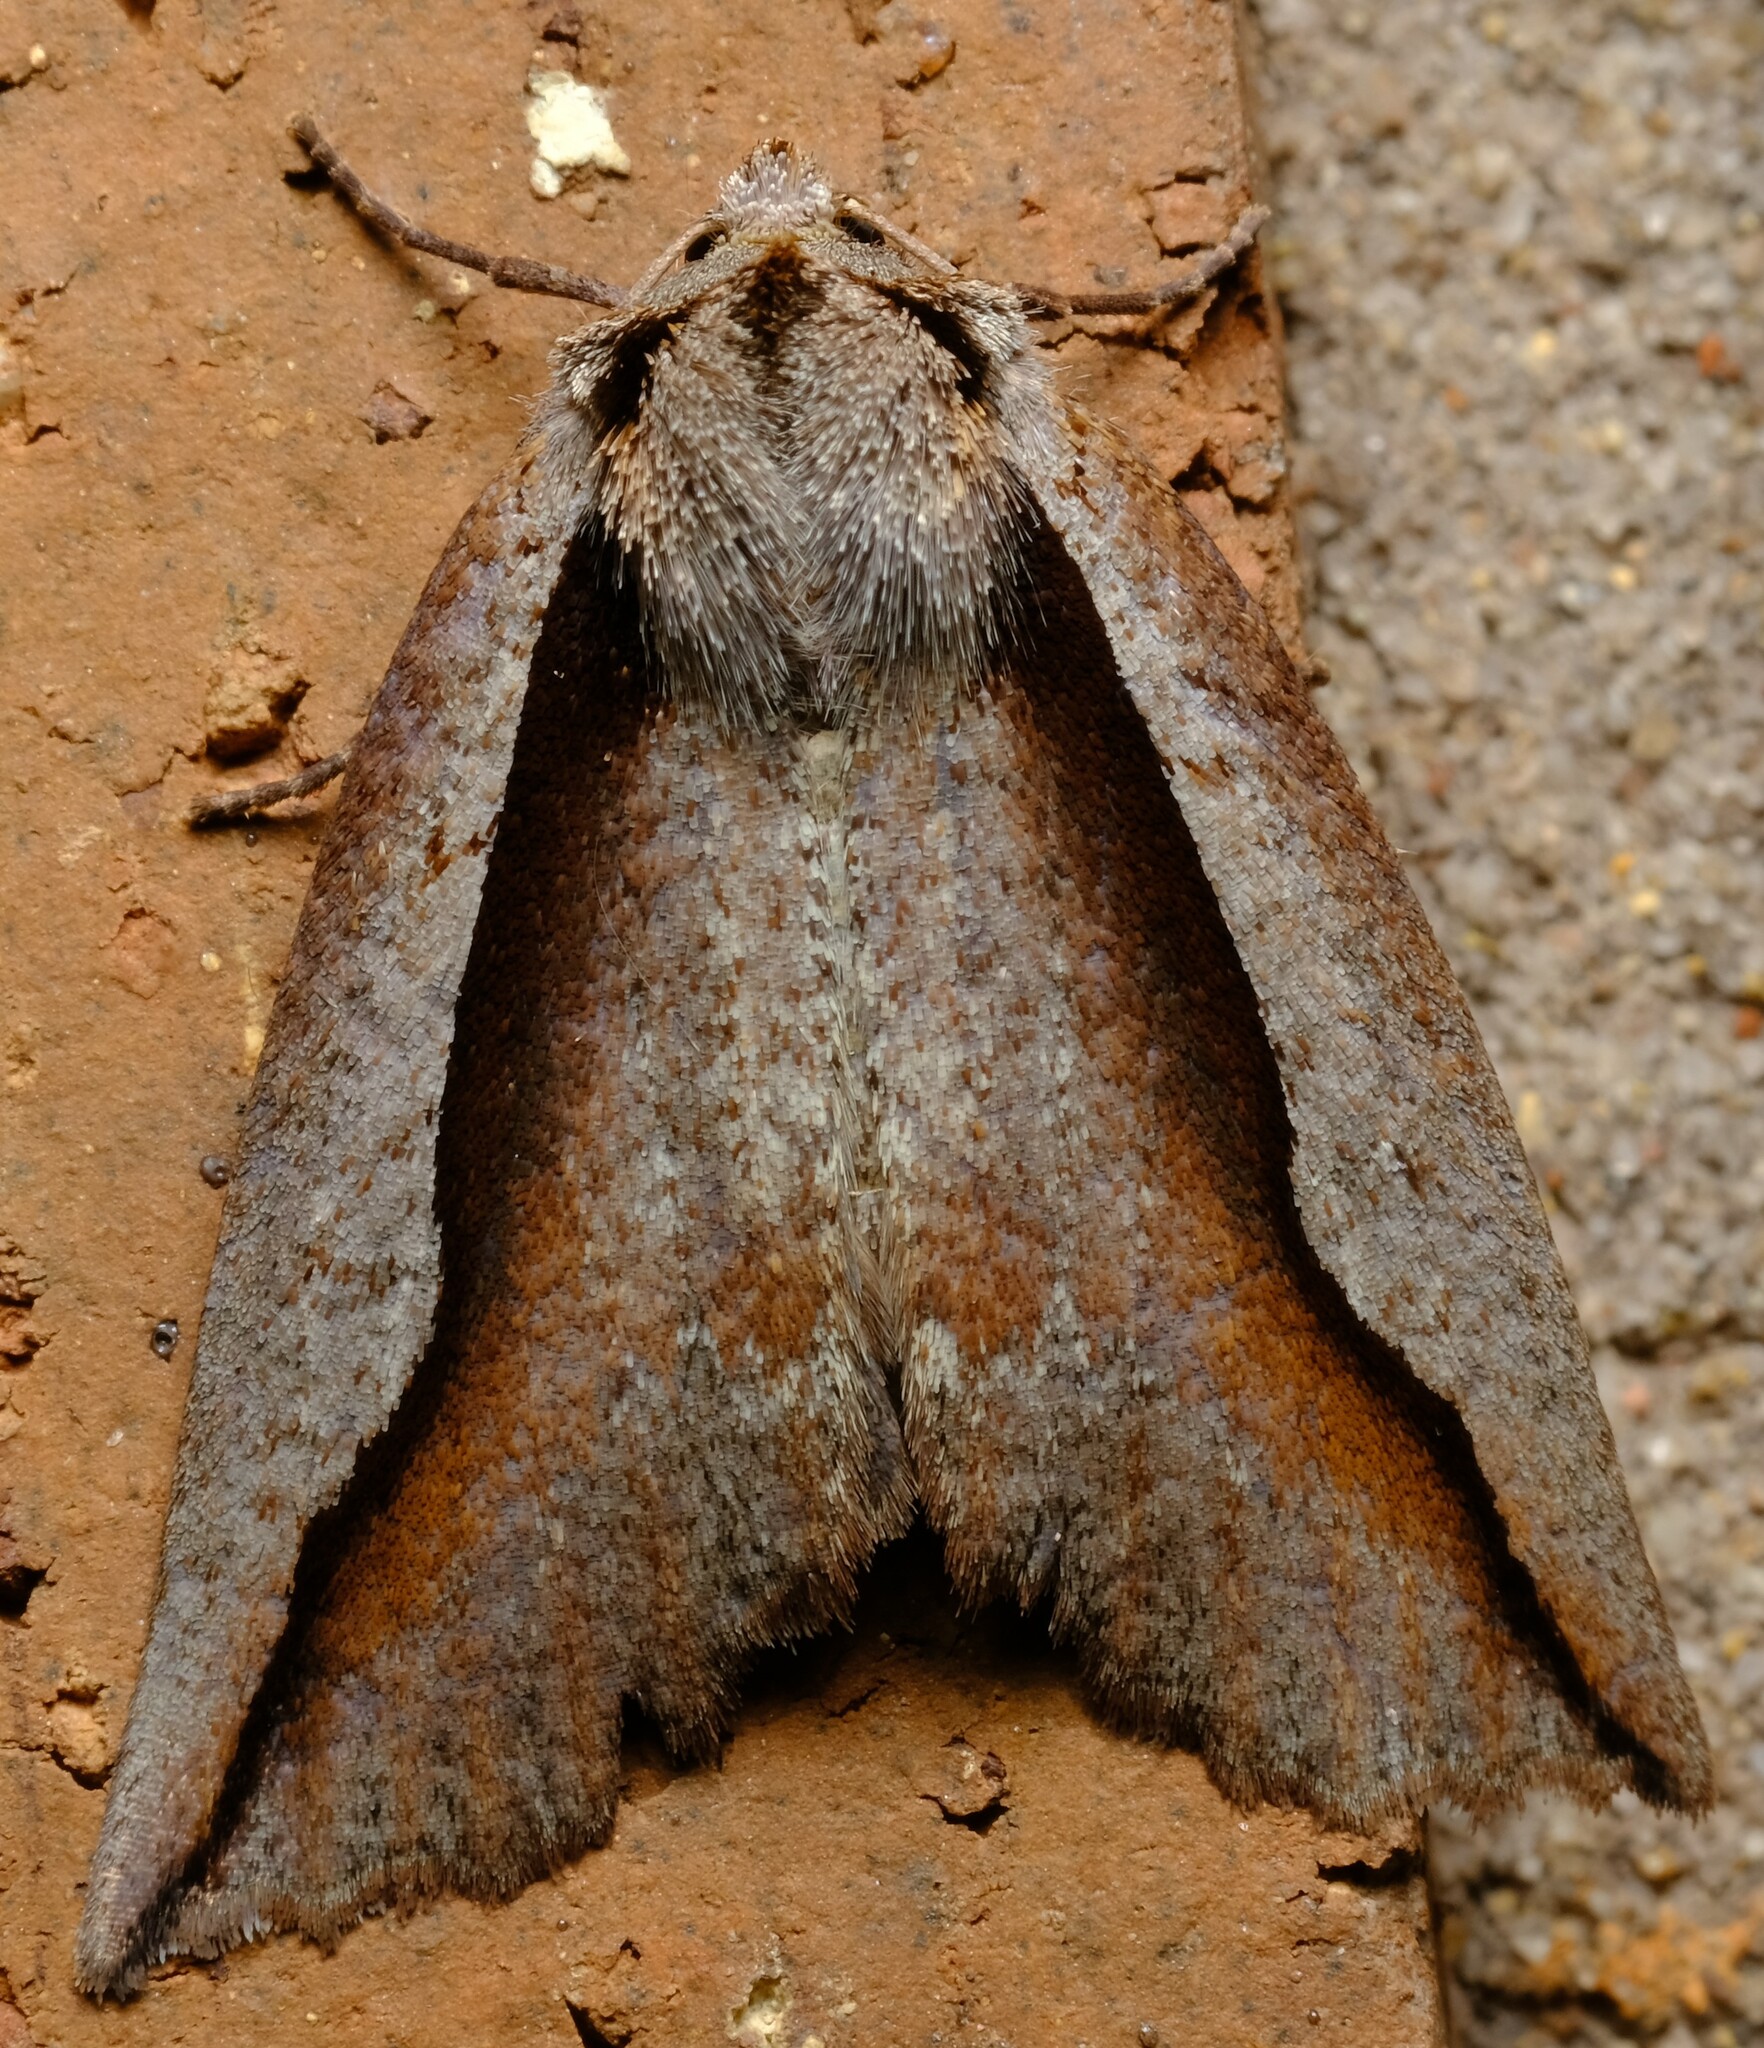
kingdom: Animalia
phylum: Arthropoda
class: Insecta
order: Lepidoptera
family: Geometridae
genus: Nisista
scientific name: Nisista
